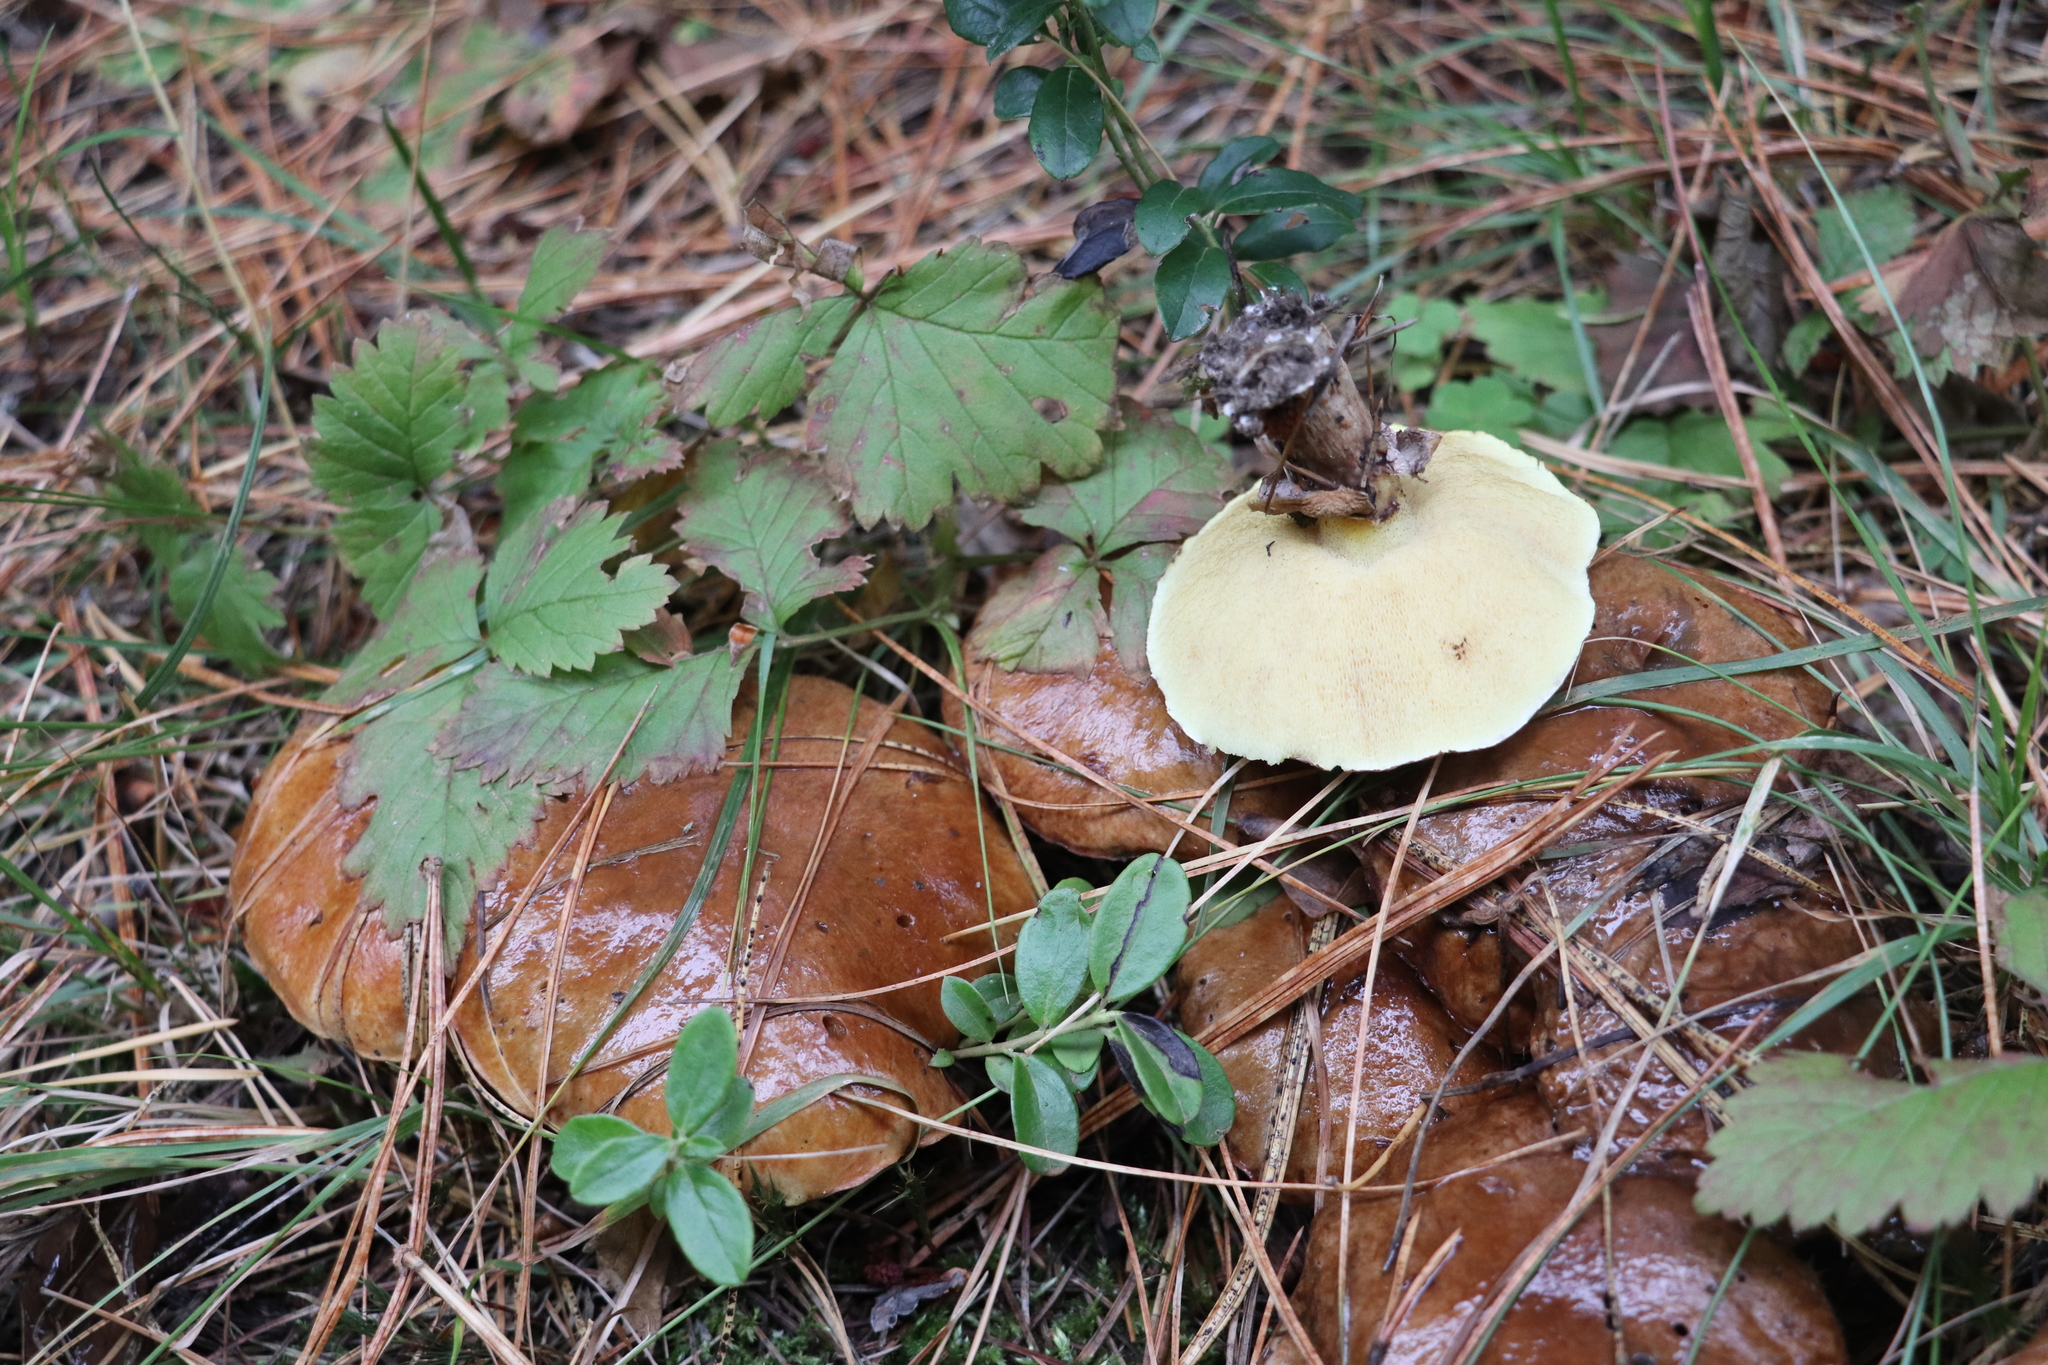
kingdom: Fungi
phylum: Basidiomycota
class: Agaricomycetes
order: Boletales
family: Suillaceae
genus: Suillus
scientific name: Suillus luteus
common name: Slippery jack
